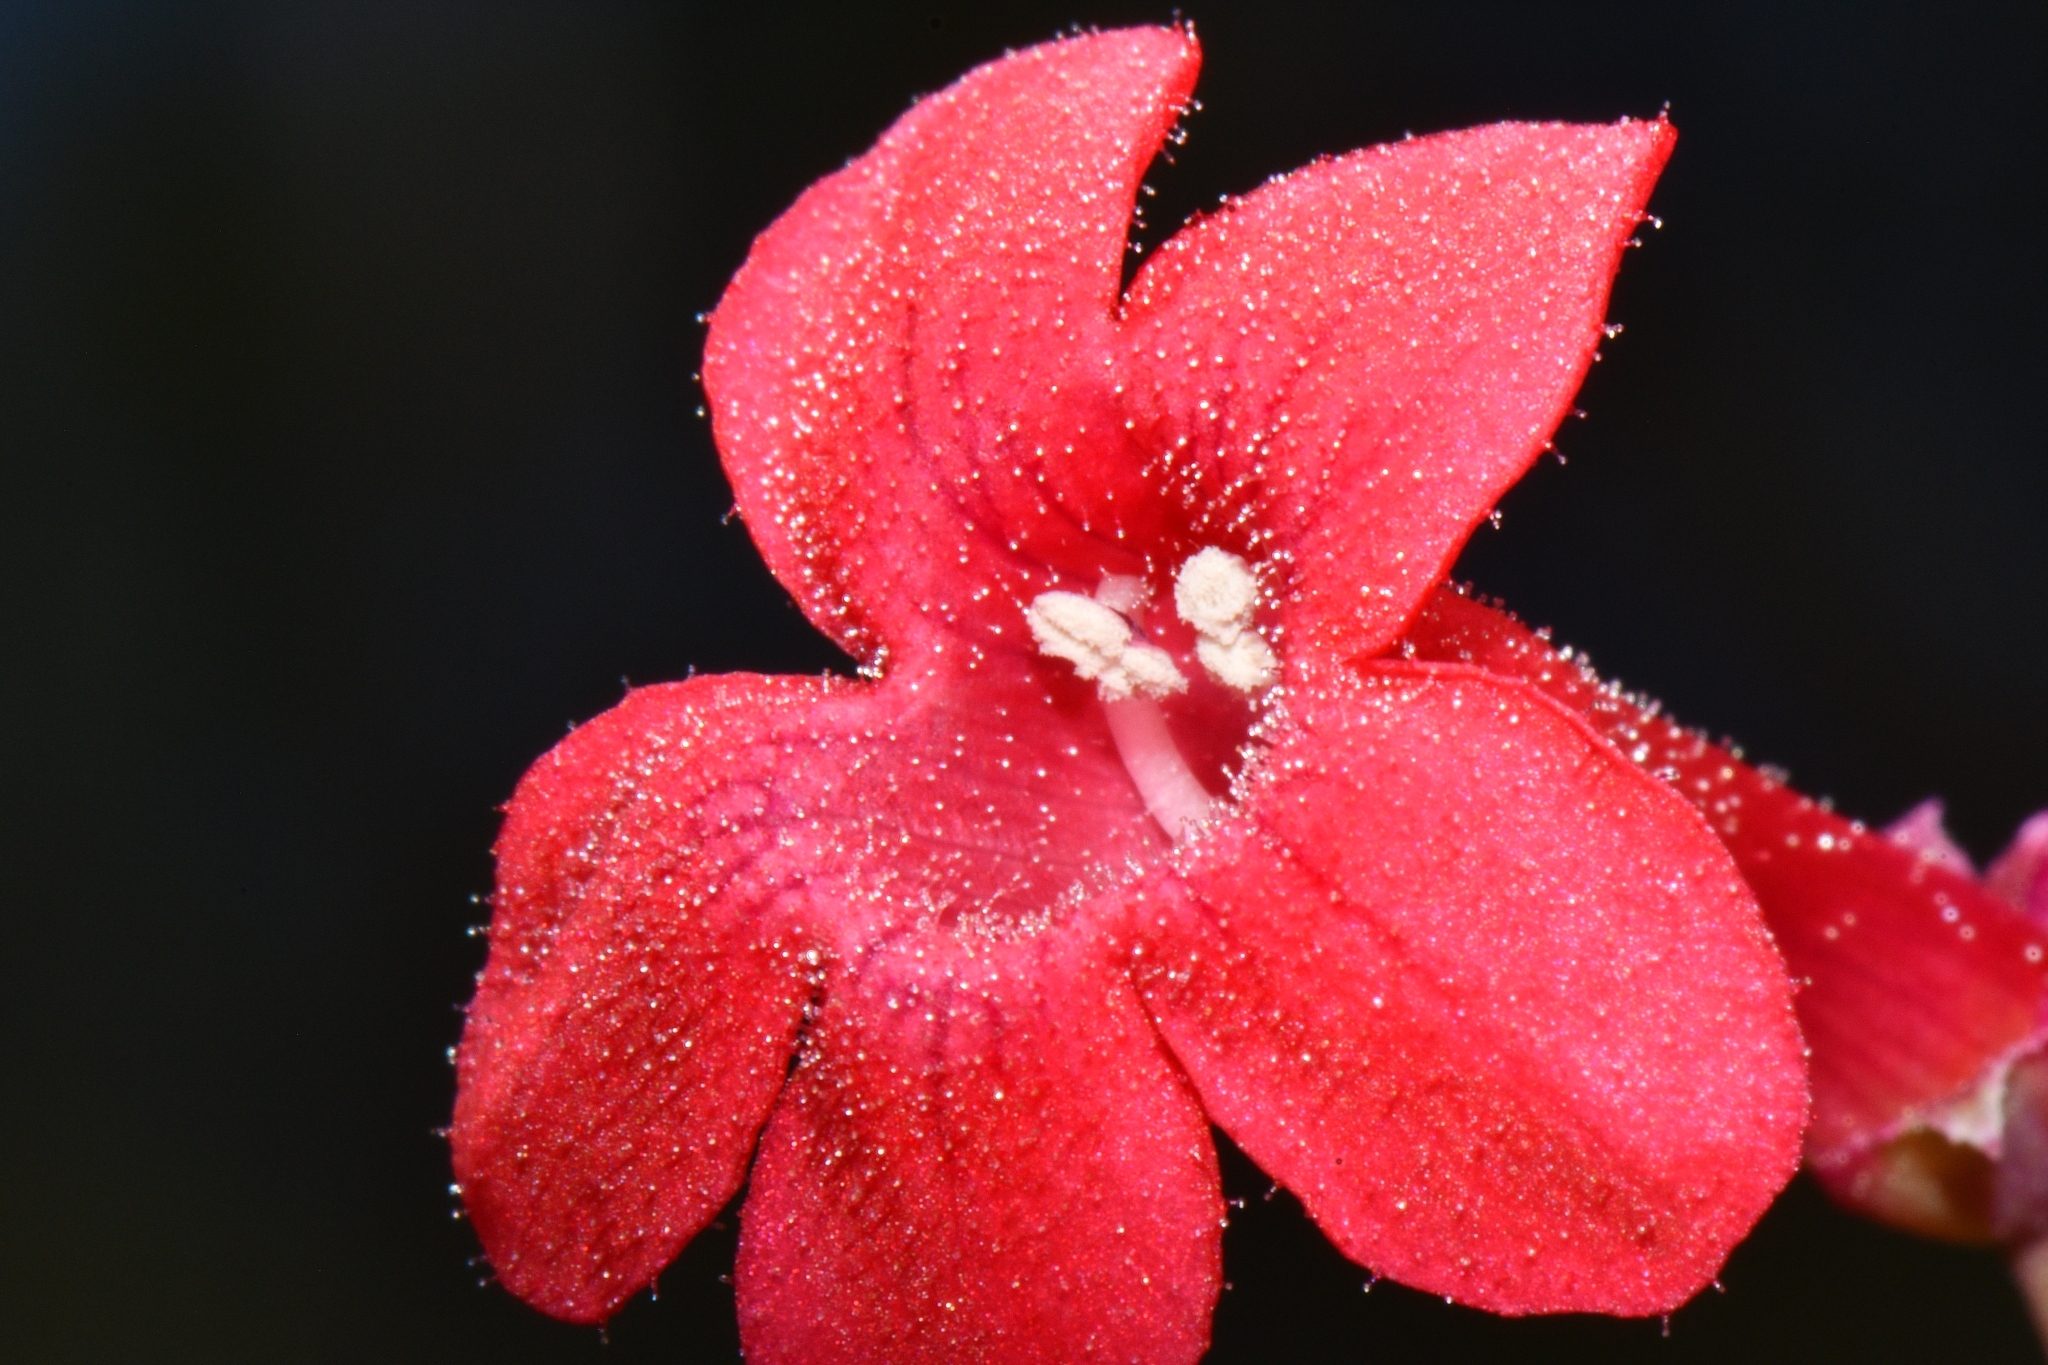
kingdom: Plantae
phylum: Tracheophyta
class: Magnoliopsida
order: Lamiales
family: Plantaginaceae
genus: Penstemon
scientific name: Penstemon utahensis
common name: Utah penstemon
